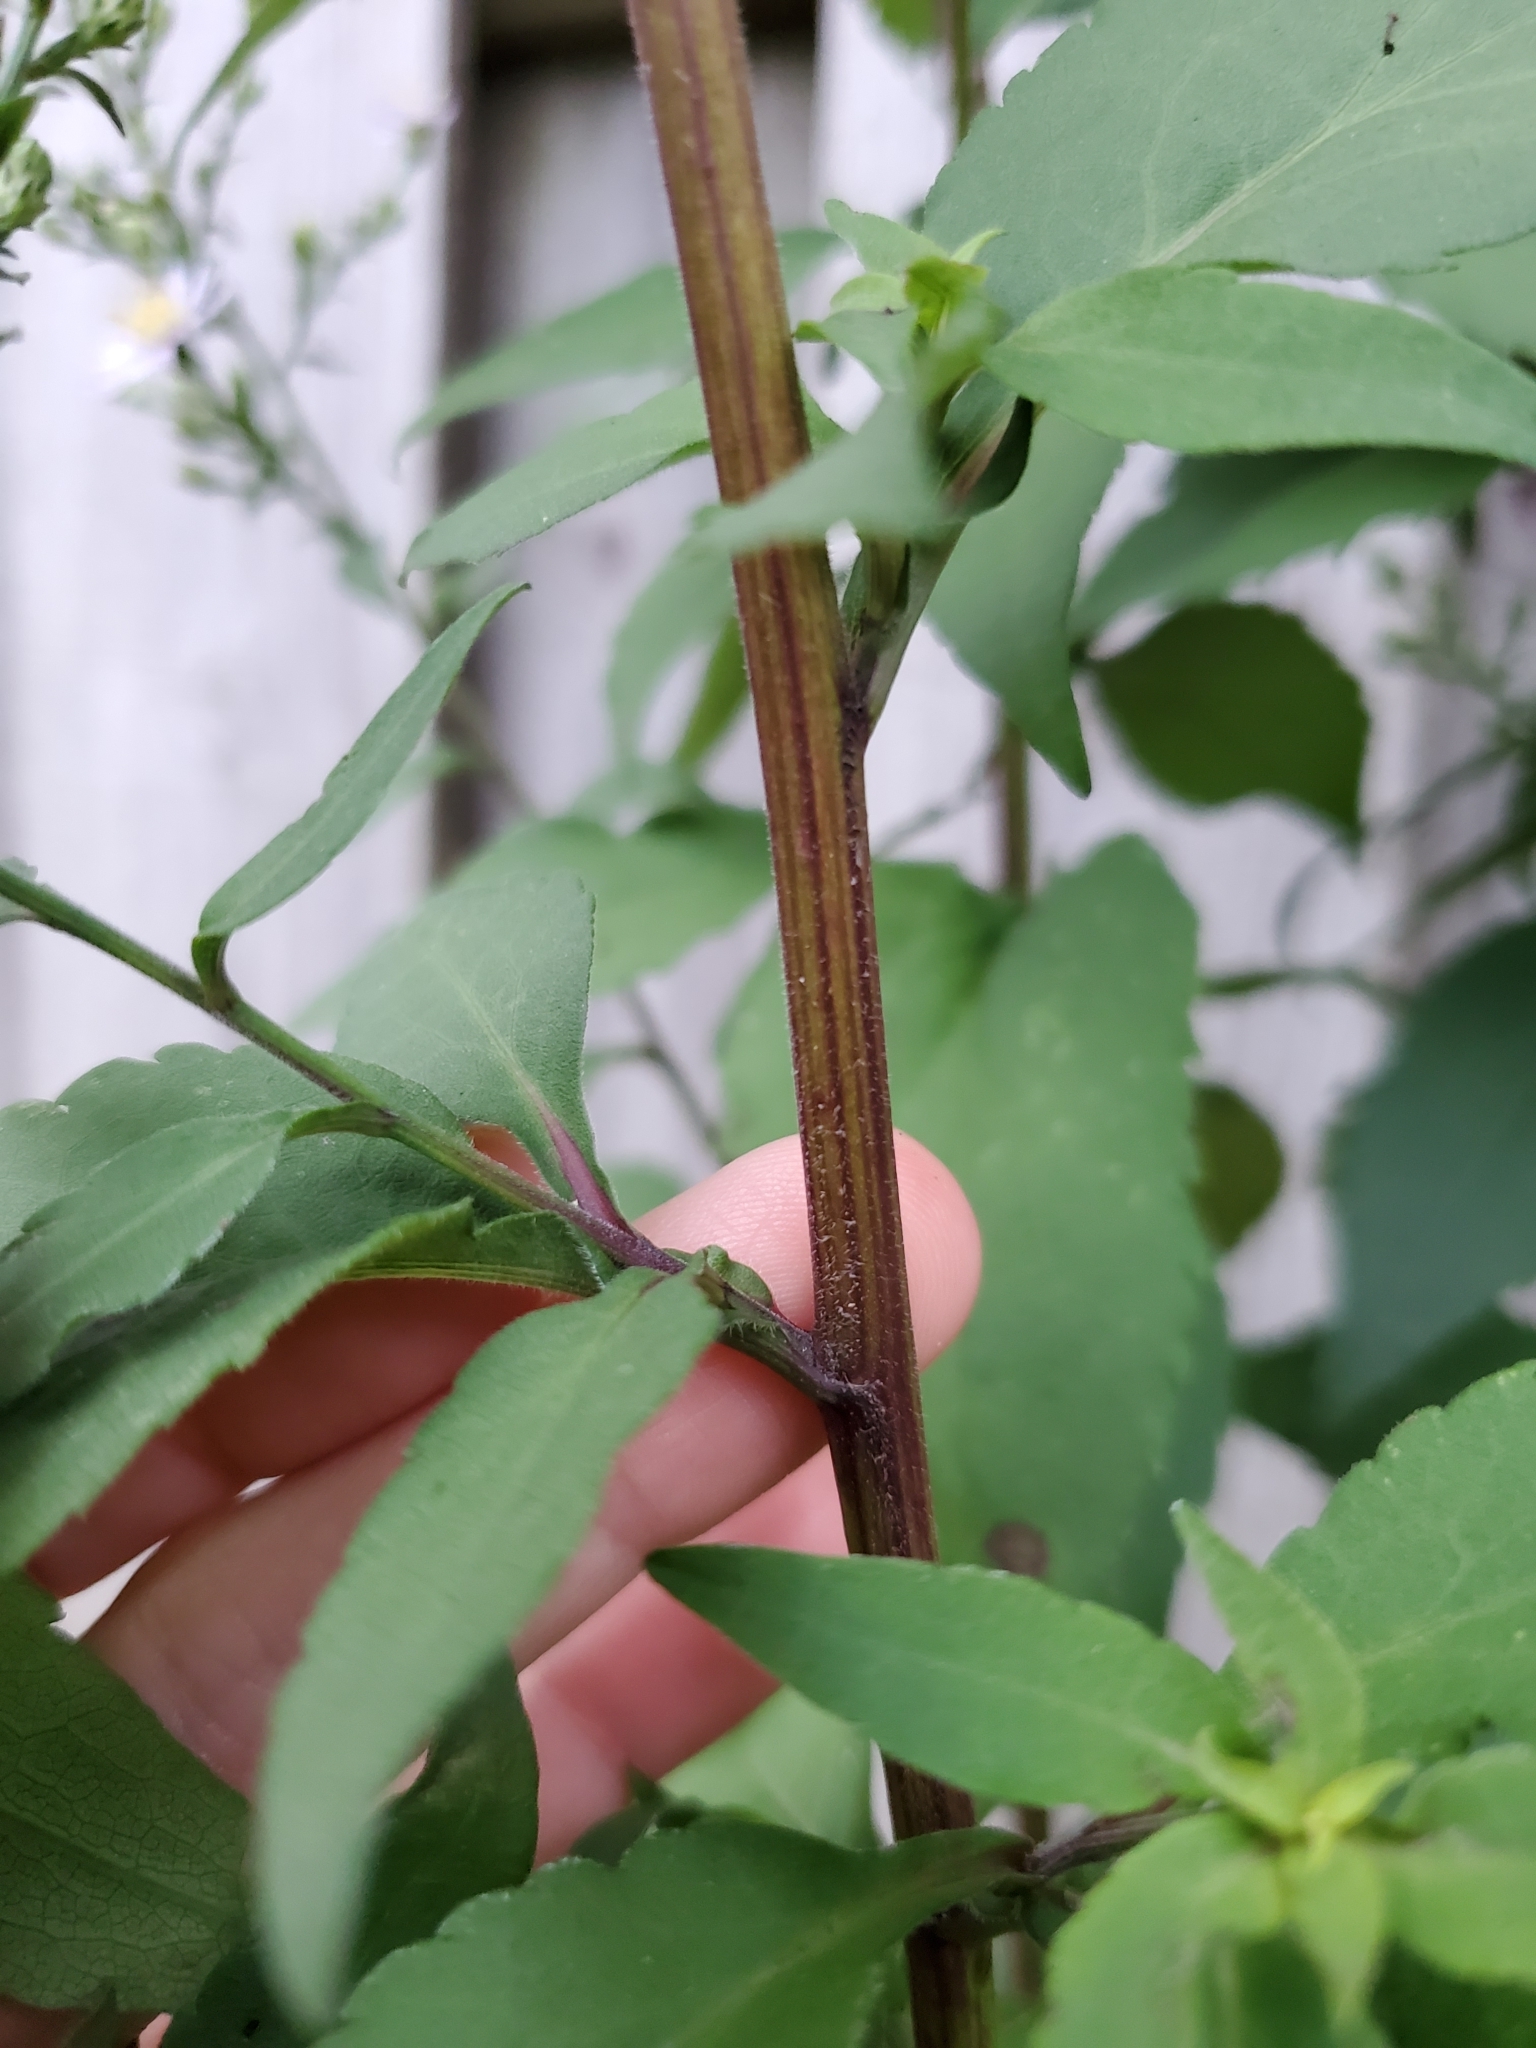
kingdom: Plantae
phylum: Tracheophyta
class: Magnoliopsida
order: Asterales
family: Asteraceae
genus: Symphyotrichum
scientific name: Symphyotrichum drummondii
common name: Drummond's aster
